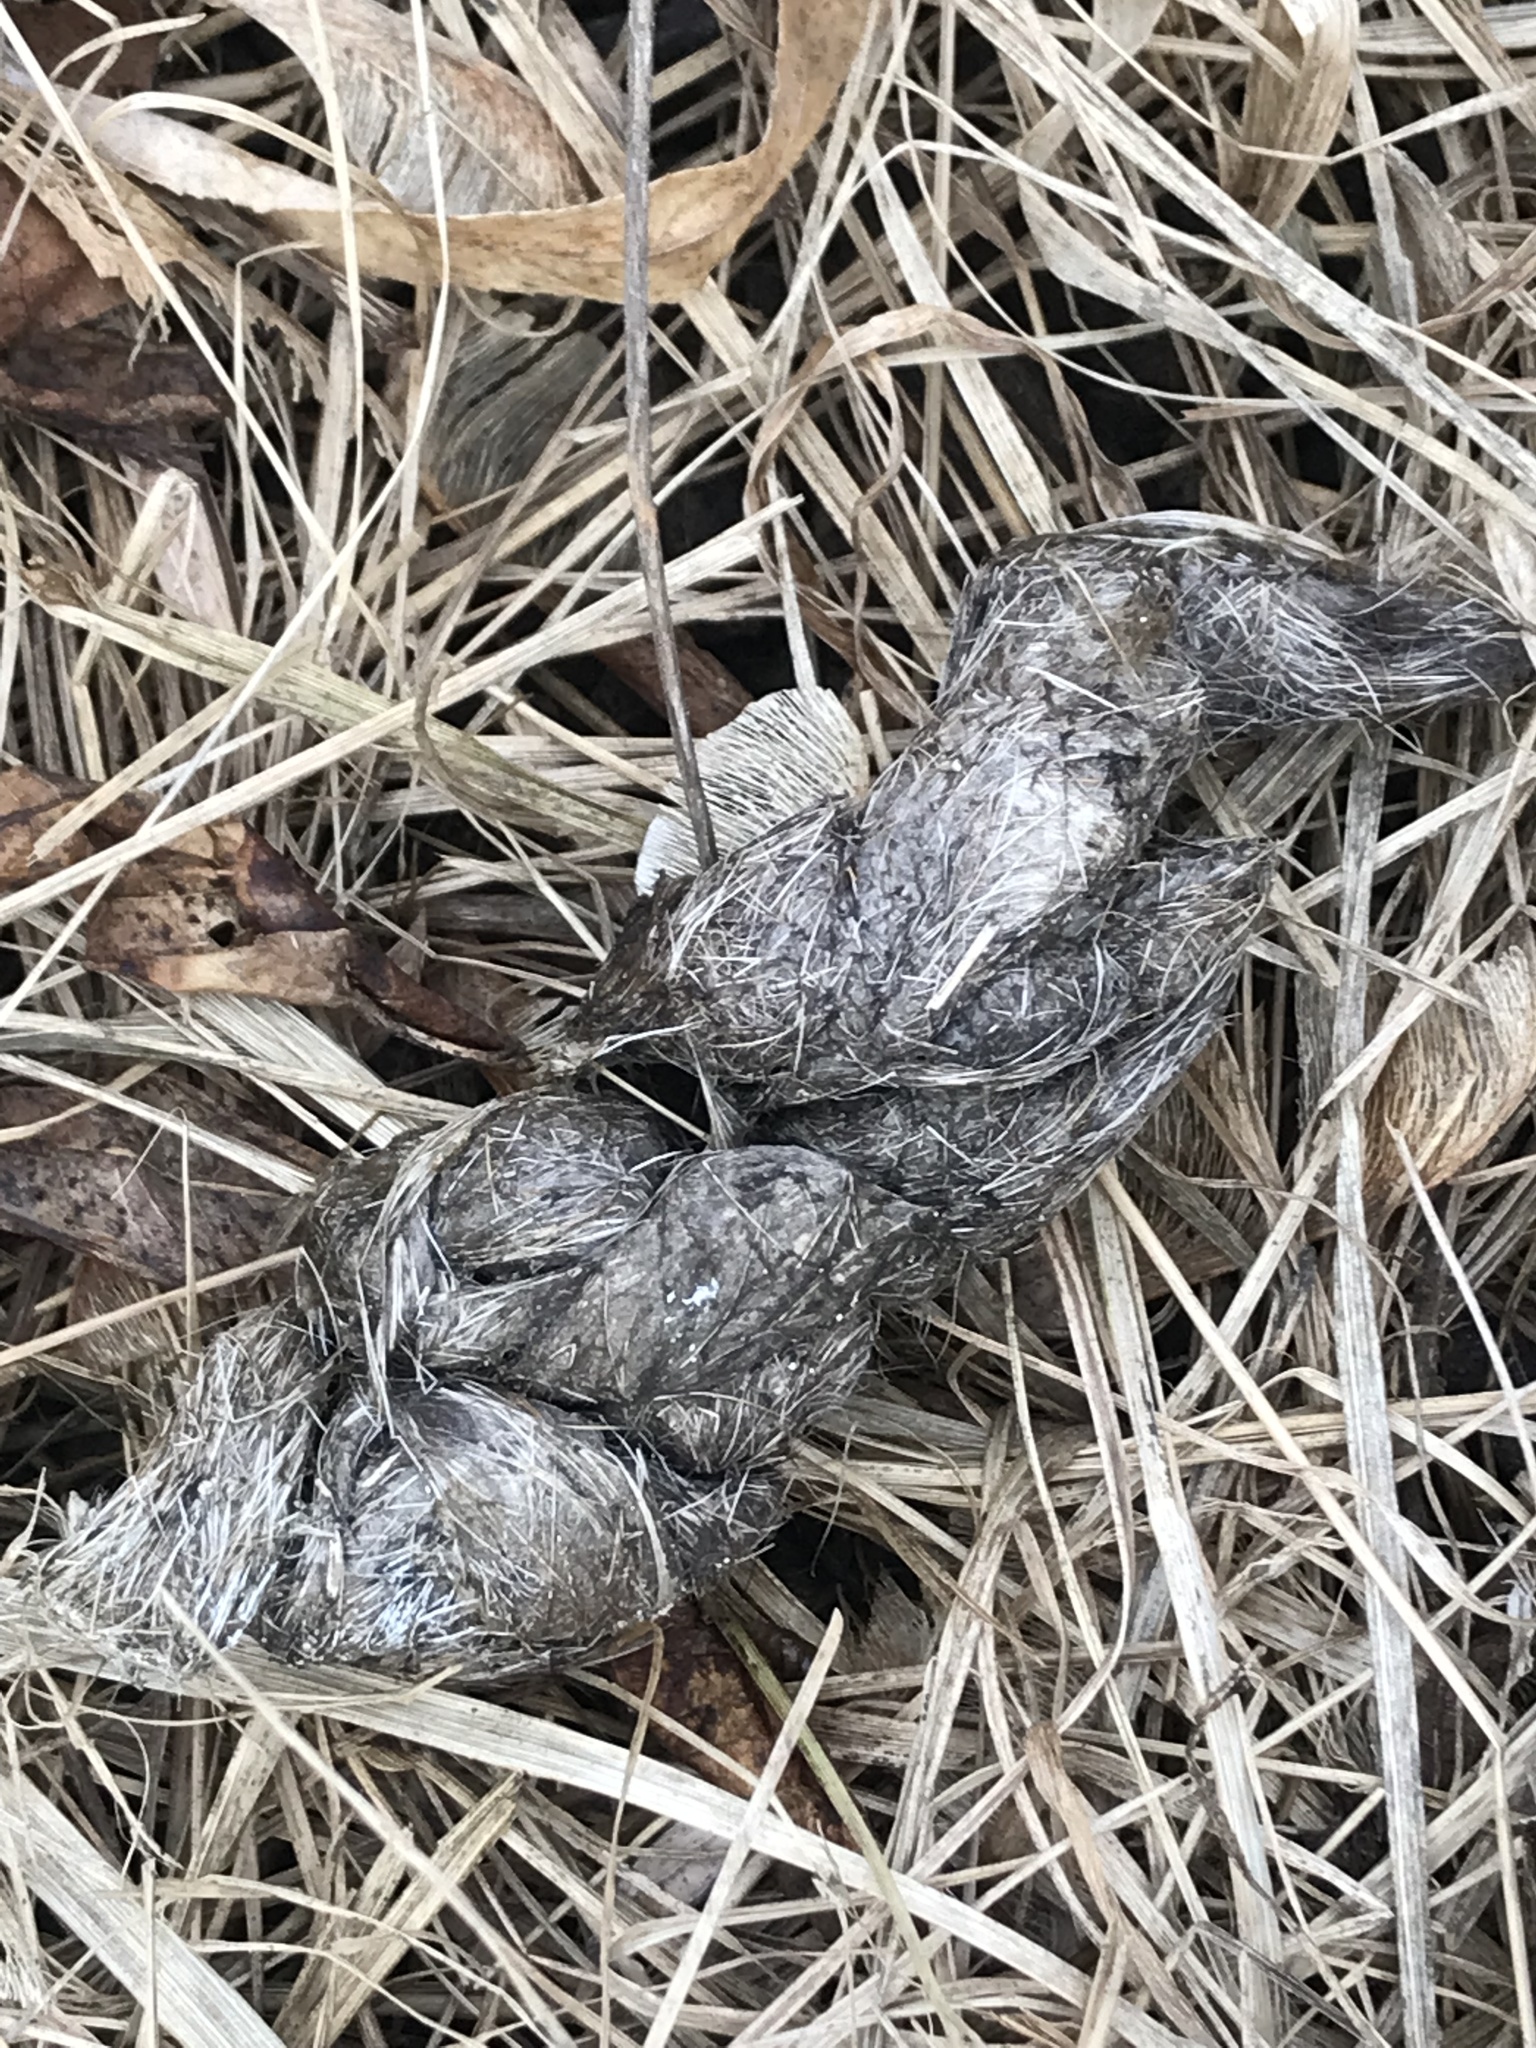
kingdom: Animalia
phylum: Chordata
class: Mammalia
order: Carnivora
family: Canidae
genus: Canis
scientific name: Canis latrans
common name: Coyote
